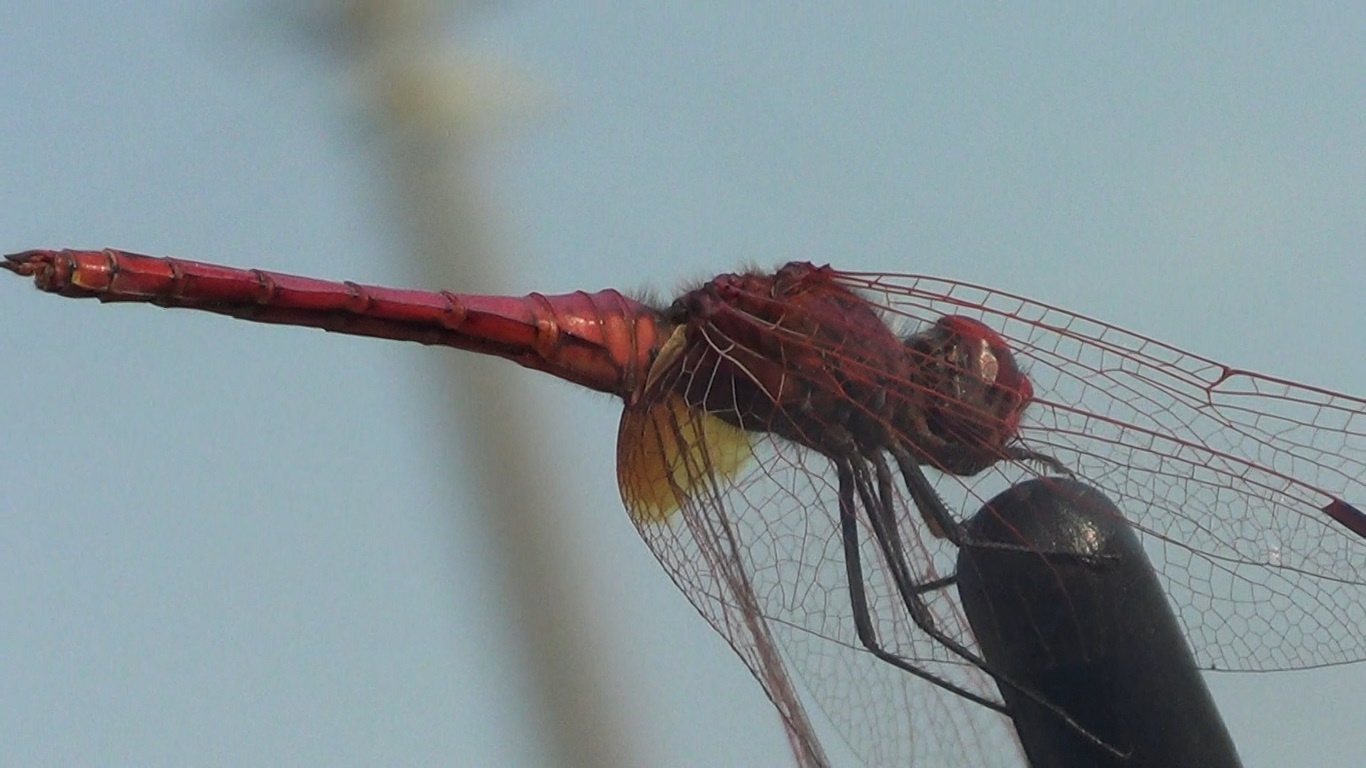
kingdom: Animalia
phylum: Arthropoda
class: Insecta
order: Odonata
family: Libellulidae
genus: Trithemis
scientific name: Trithemis annulata
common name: Violet dropwing
